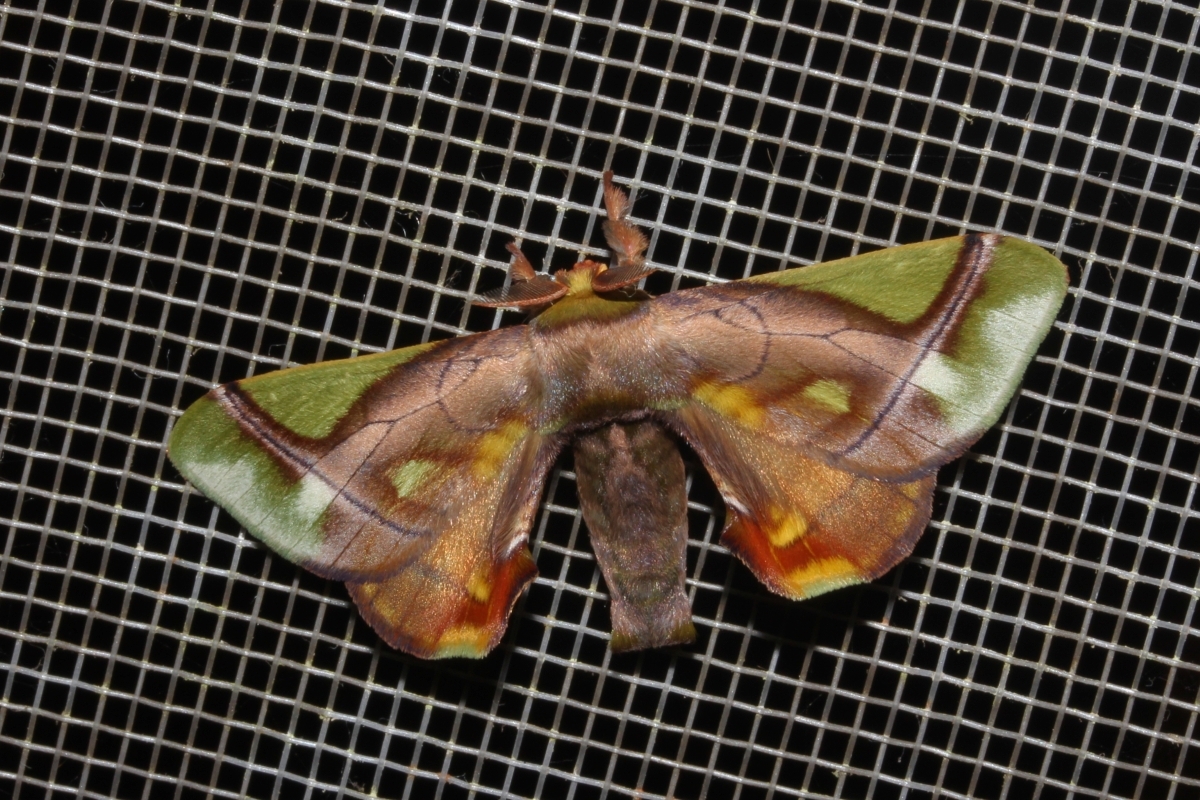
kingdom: Animalia
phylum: Arthropoda
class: Insecta
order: Lepidoptera
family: Bombycidae
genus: Epia
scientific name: Epia muscosa
